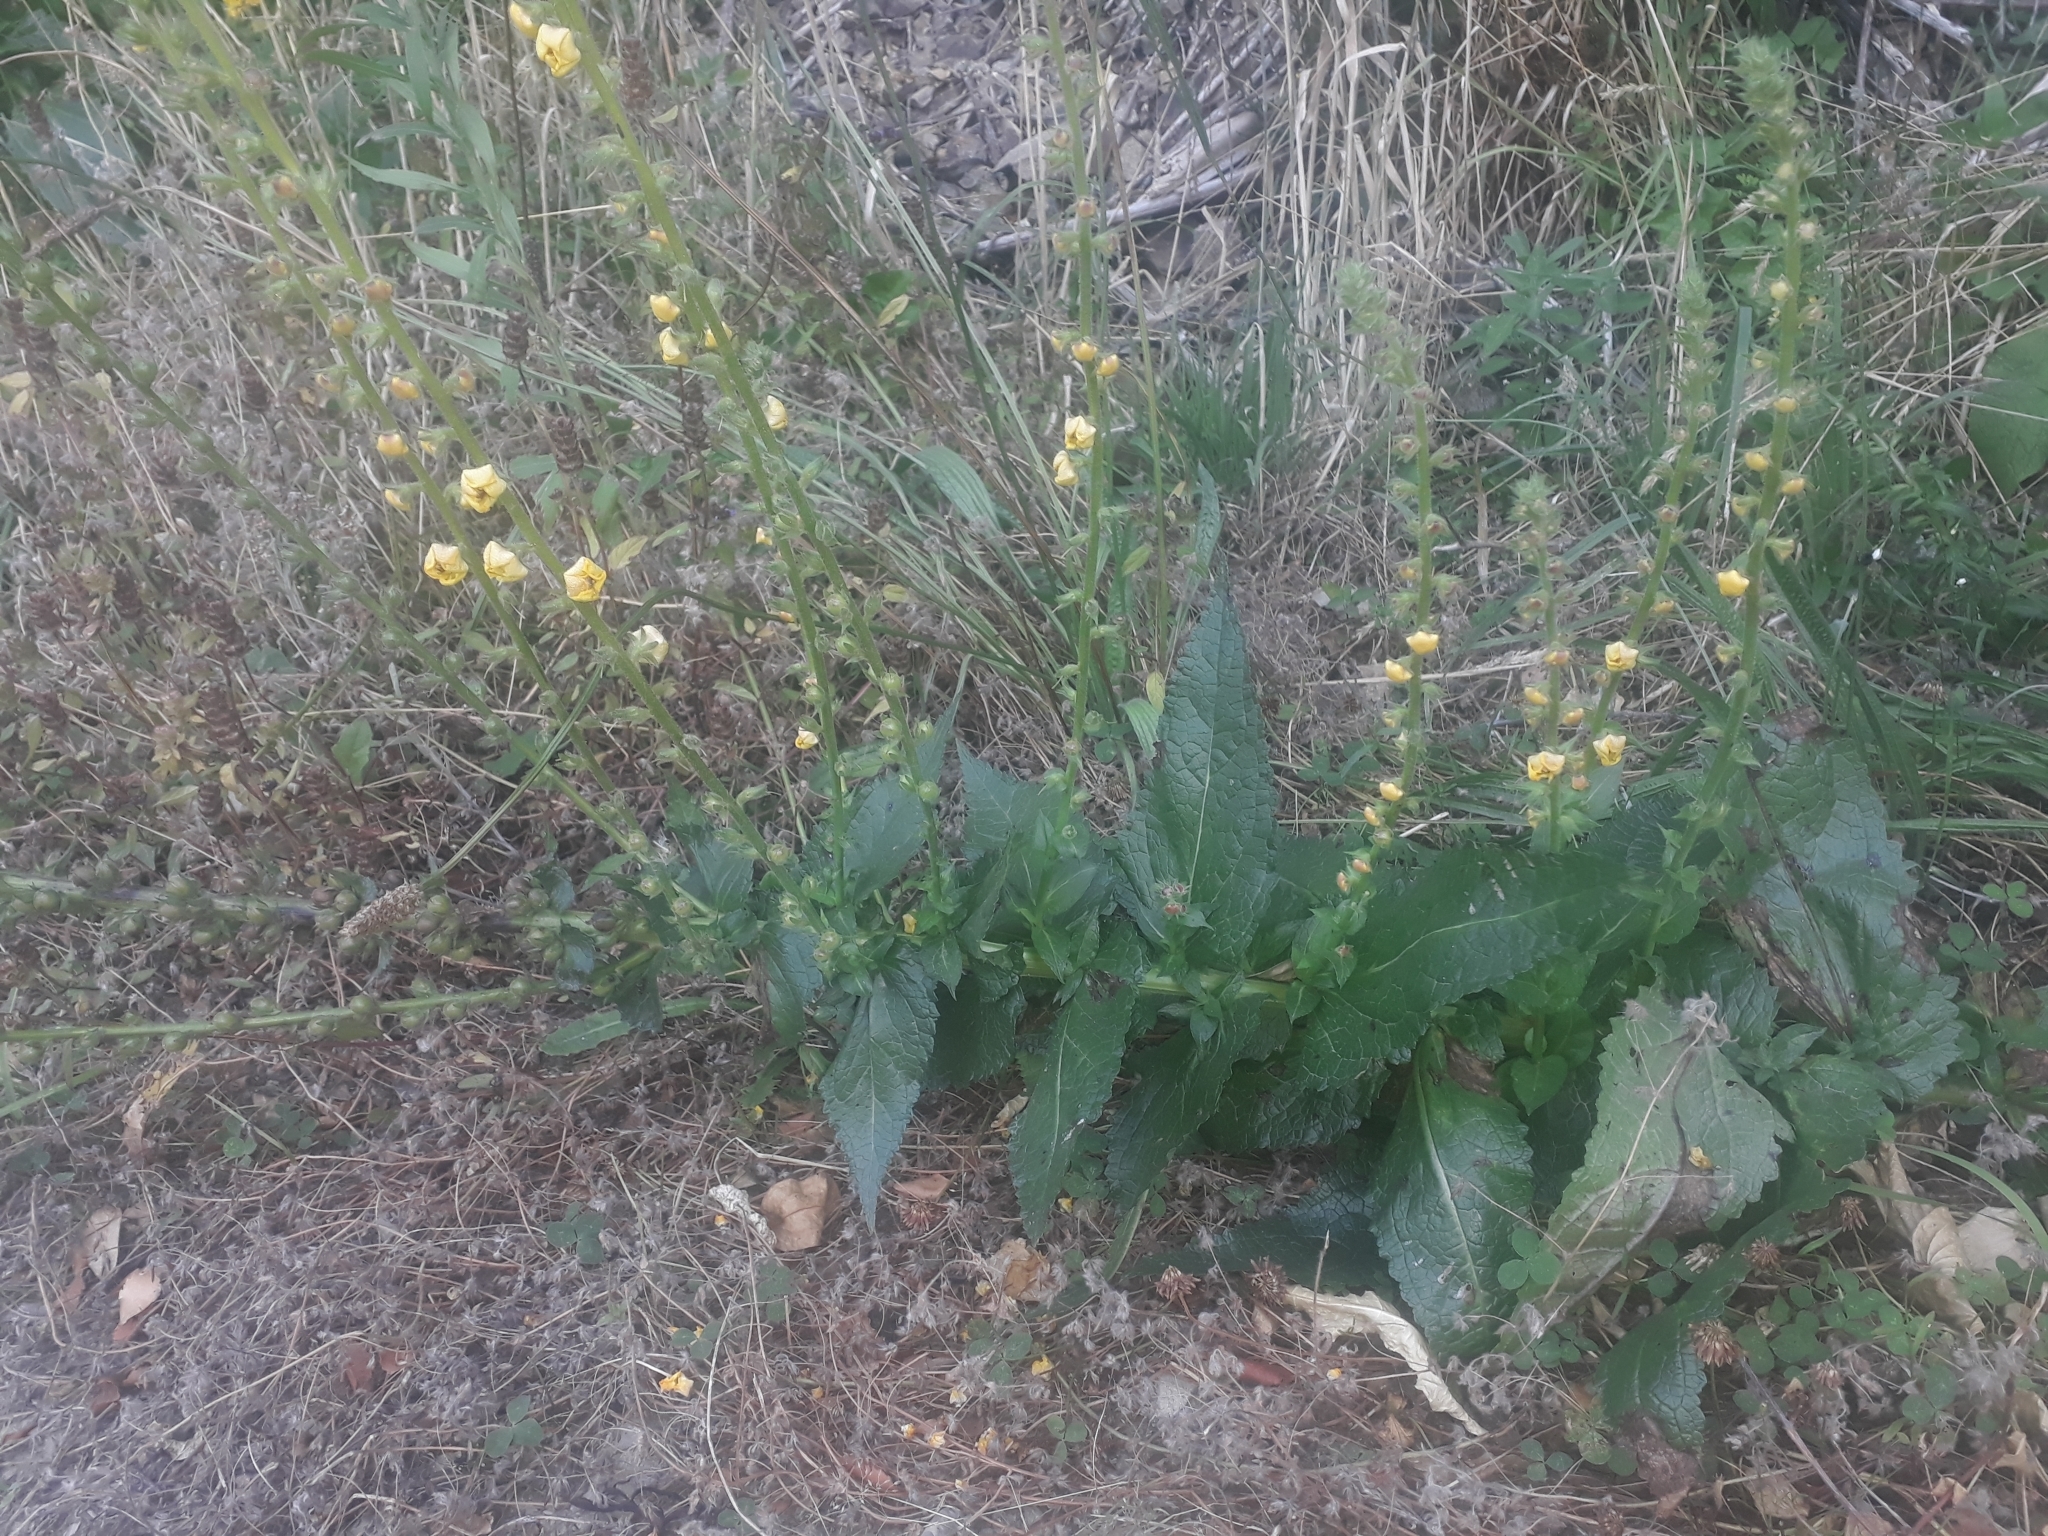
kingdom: Plantae
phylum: Tracheophyta
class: Magnoliopsida
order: Lamiales
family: Scrophulariaceae
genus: Verbascum
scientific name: Verbascum virgatum
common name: Twiggy mullein
